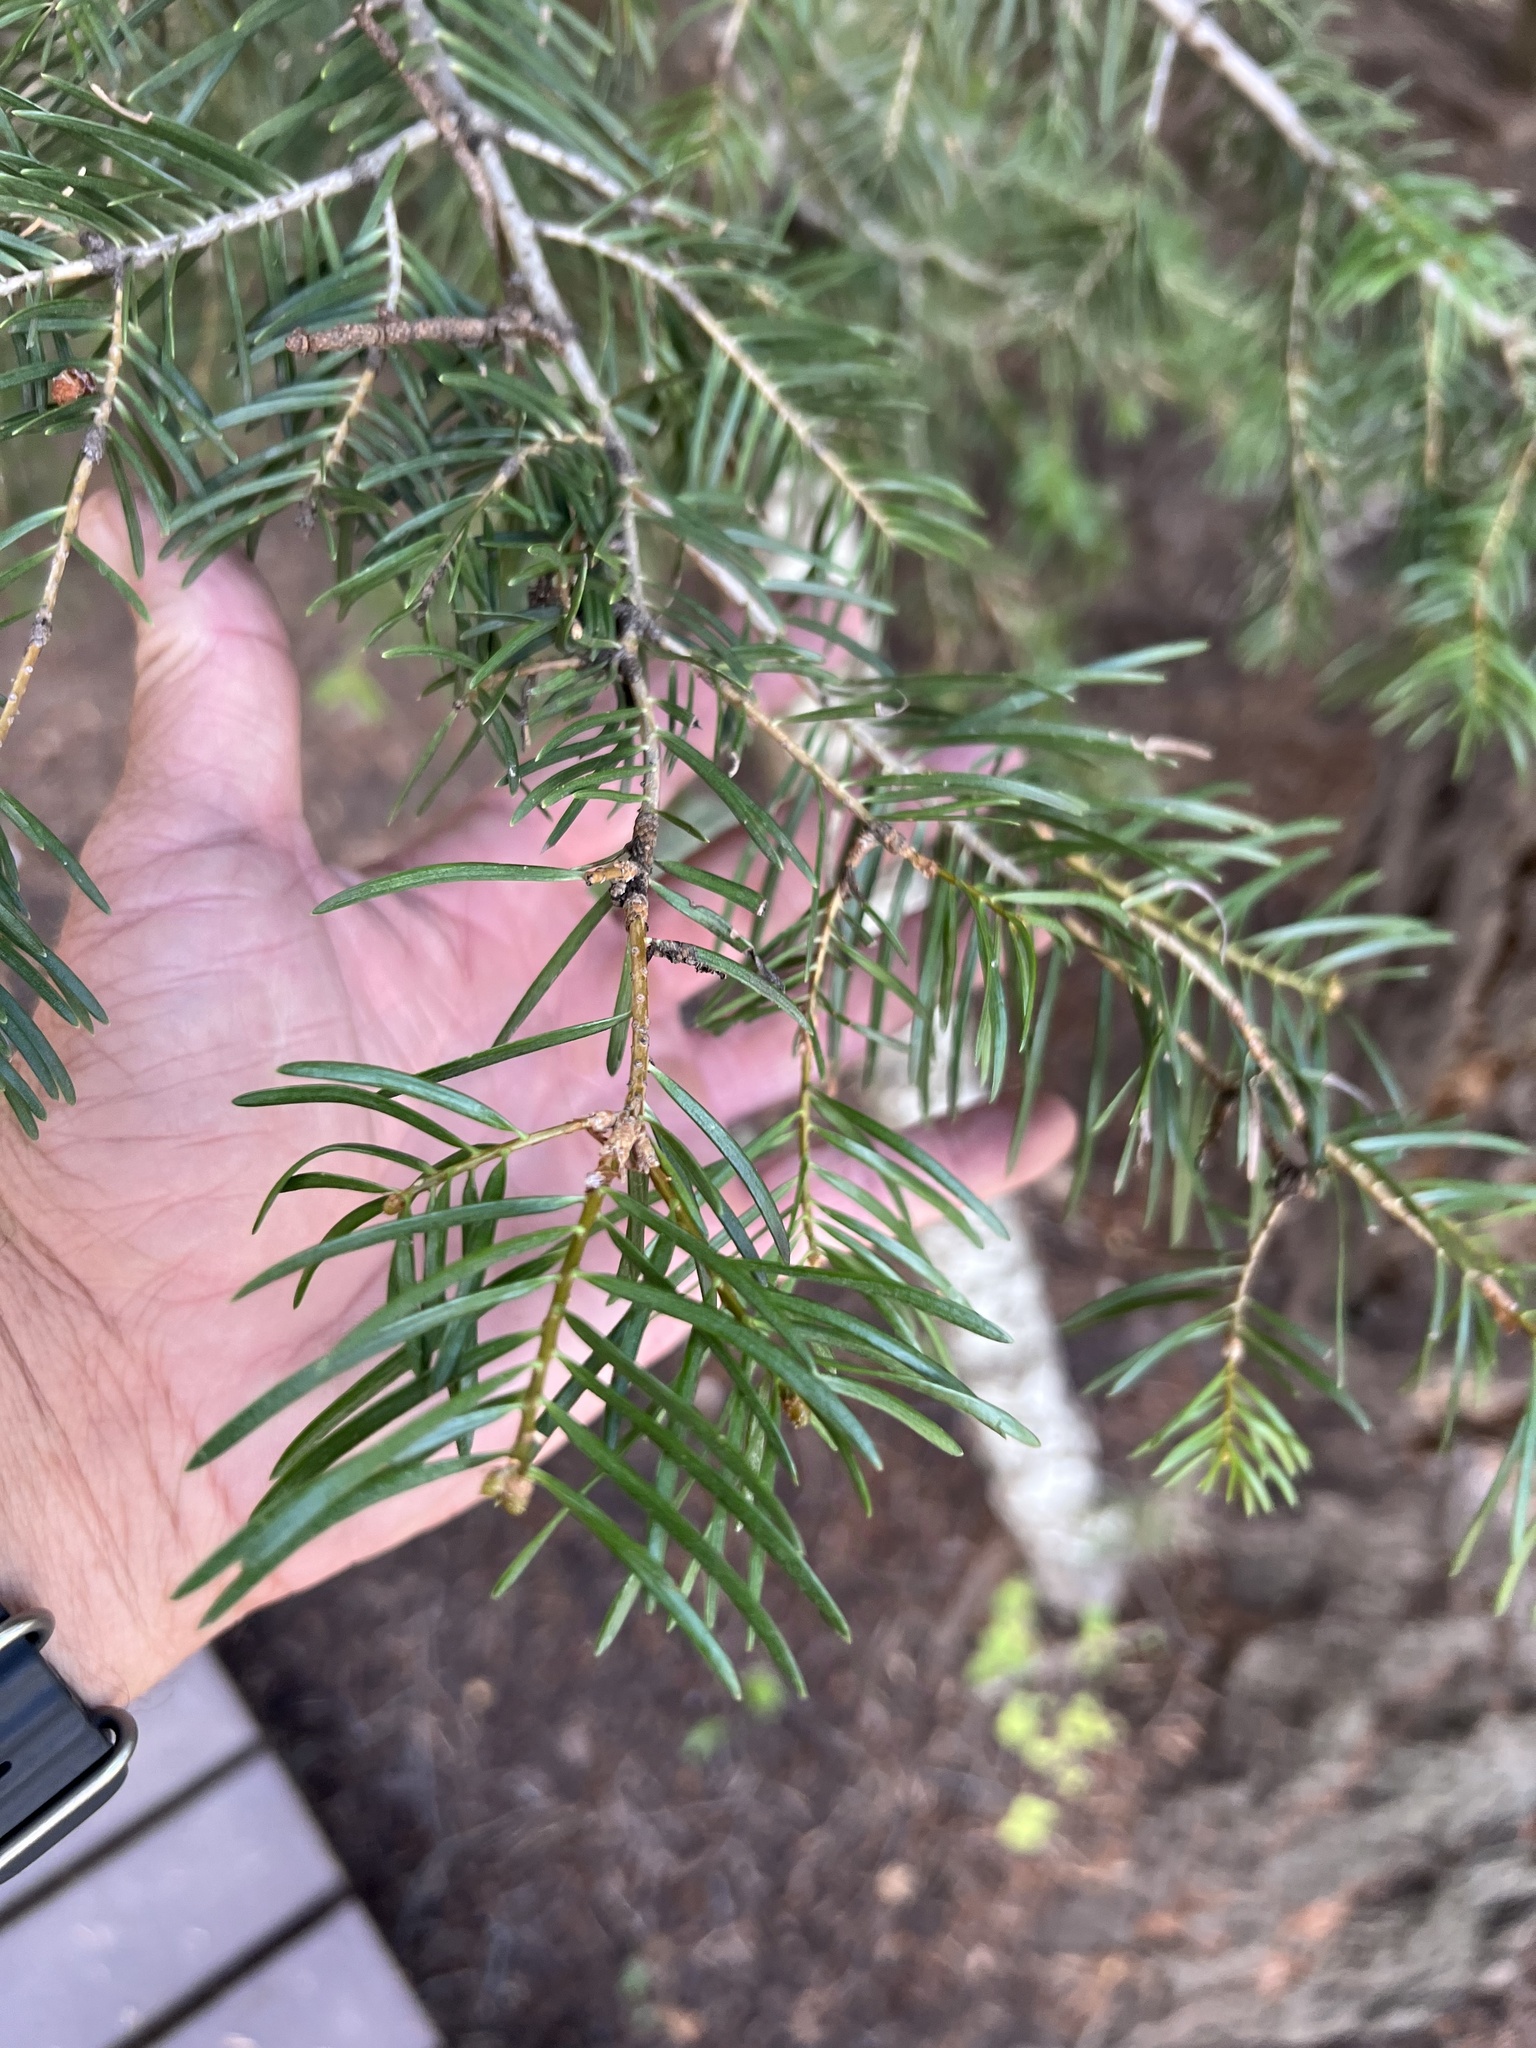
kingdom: Plantae
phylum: Tracheophyta
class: Pinopsida
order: Pinales
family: Pinaceae
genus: Abies
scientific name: Abies concolor
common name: Colorado fir
